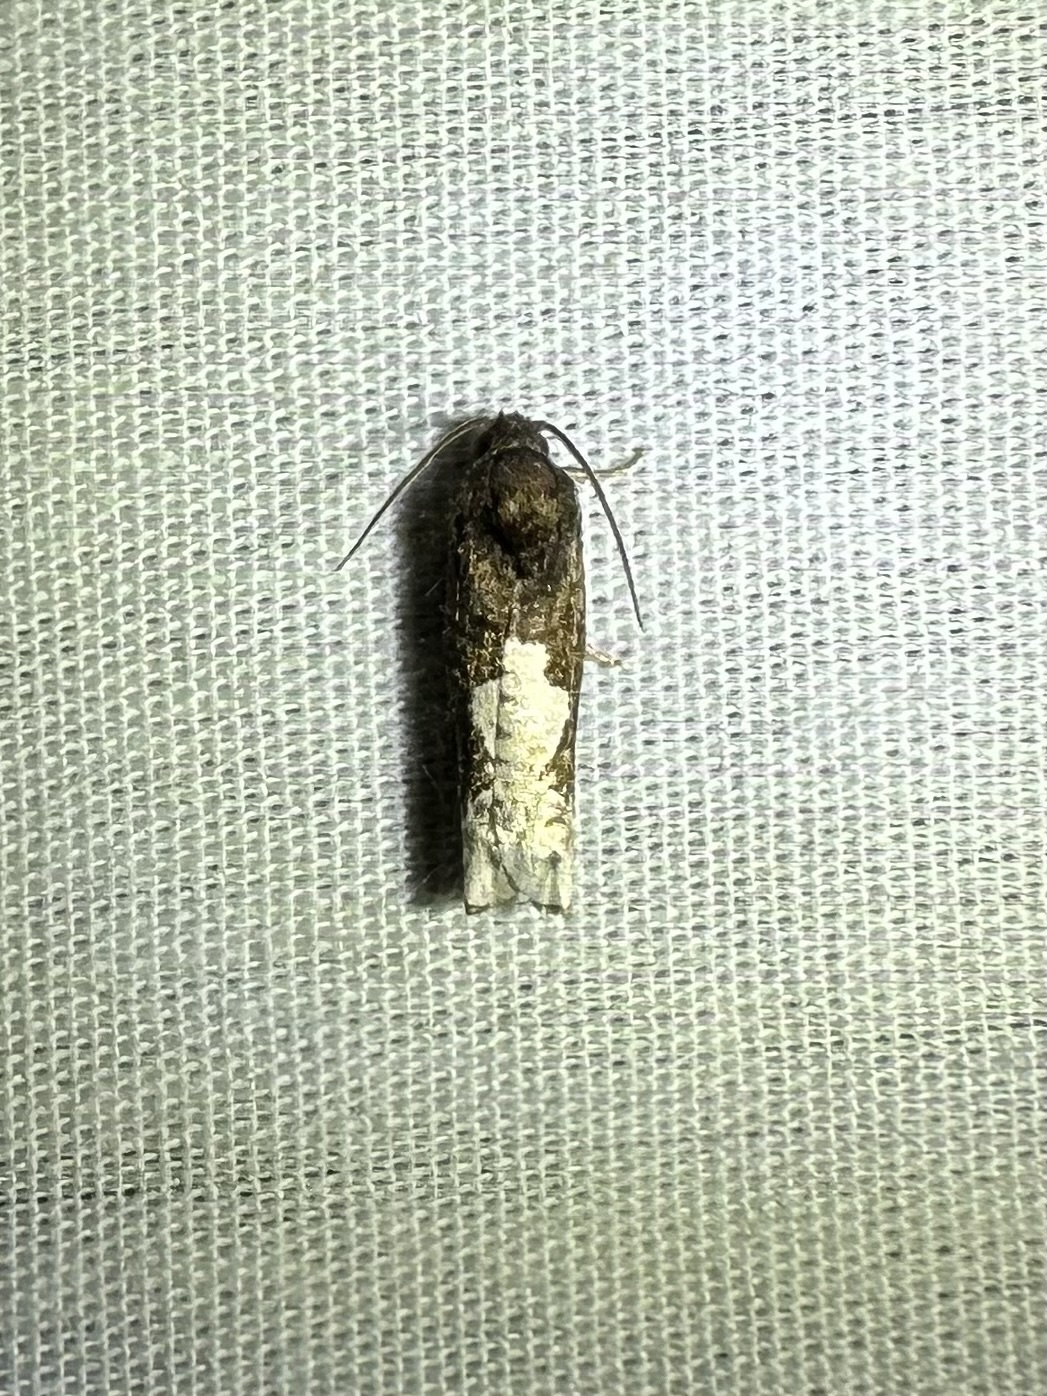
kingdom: Animalia
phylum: Arthropoda
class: Insecta
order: Lepidoptera
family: Tortricidae
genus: Epiblema
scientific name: Epiblema dorsisuffusana
